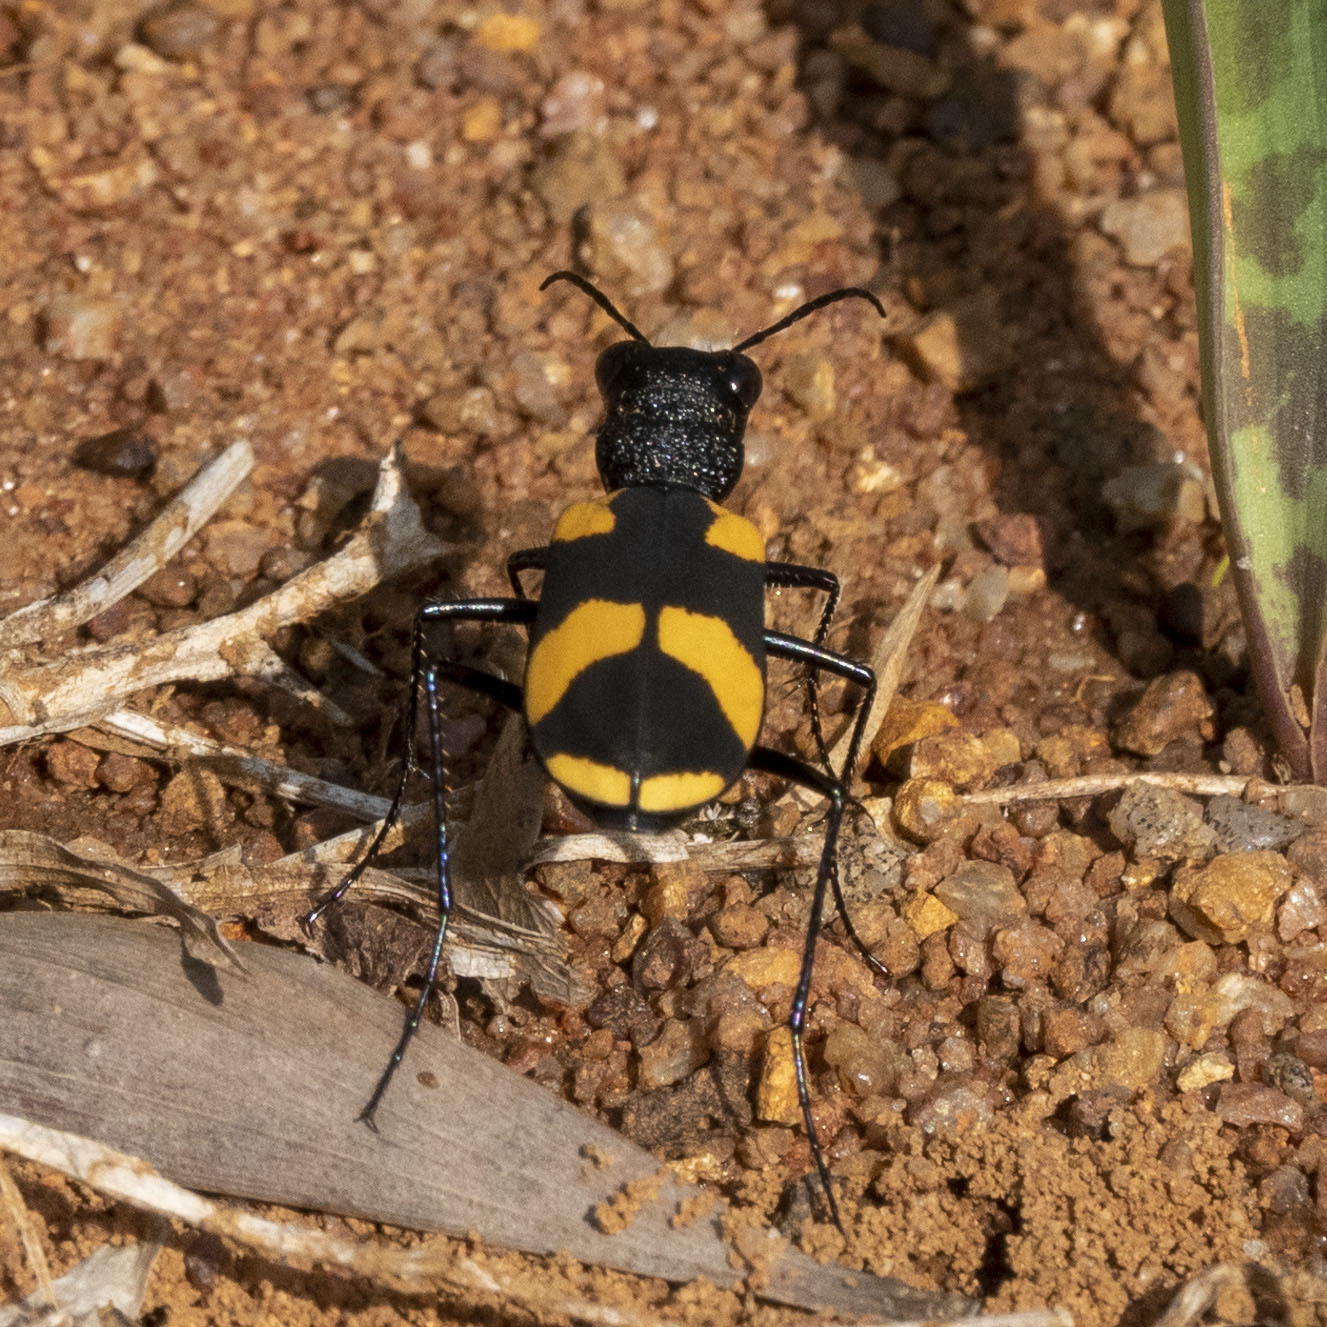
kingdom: Animalia
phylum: Arthropoda
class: Insecta
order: Coleoptera
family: Carabidae
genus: Cicindela
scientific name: Cicindela princeps
